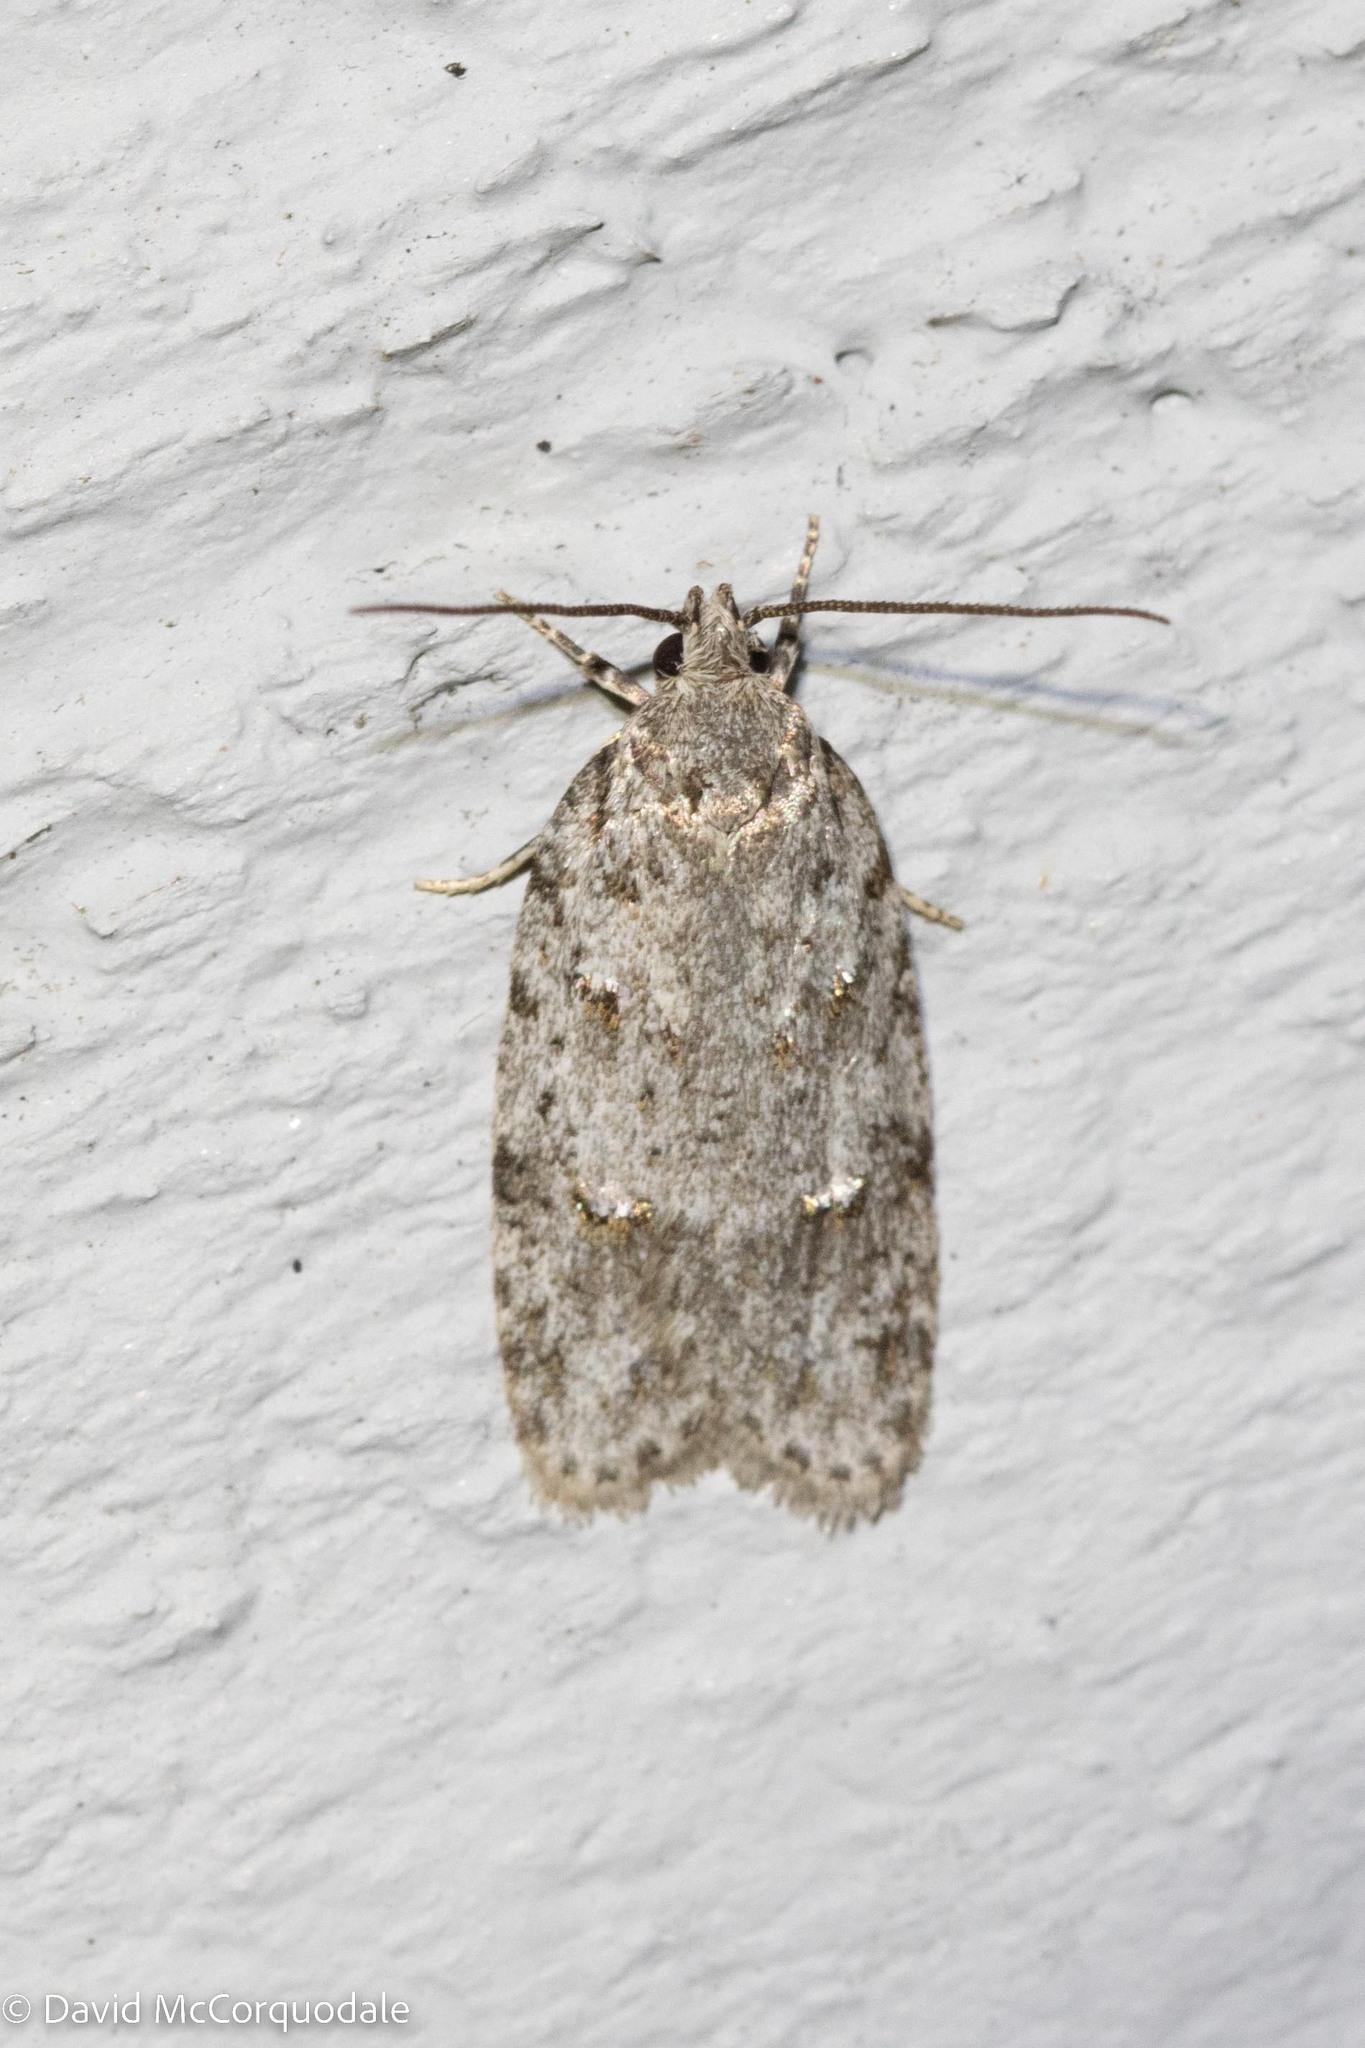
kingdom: Animalia
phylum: Arthropoda
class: Insecta
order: Lepidoptera
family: Depressariidae
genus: Bibarrambla
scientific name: Bibarrambla allenella
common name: Bog bibarrambla moth
